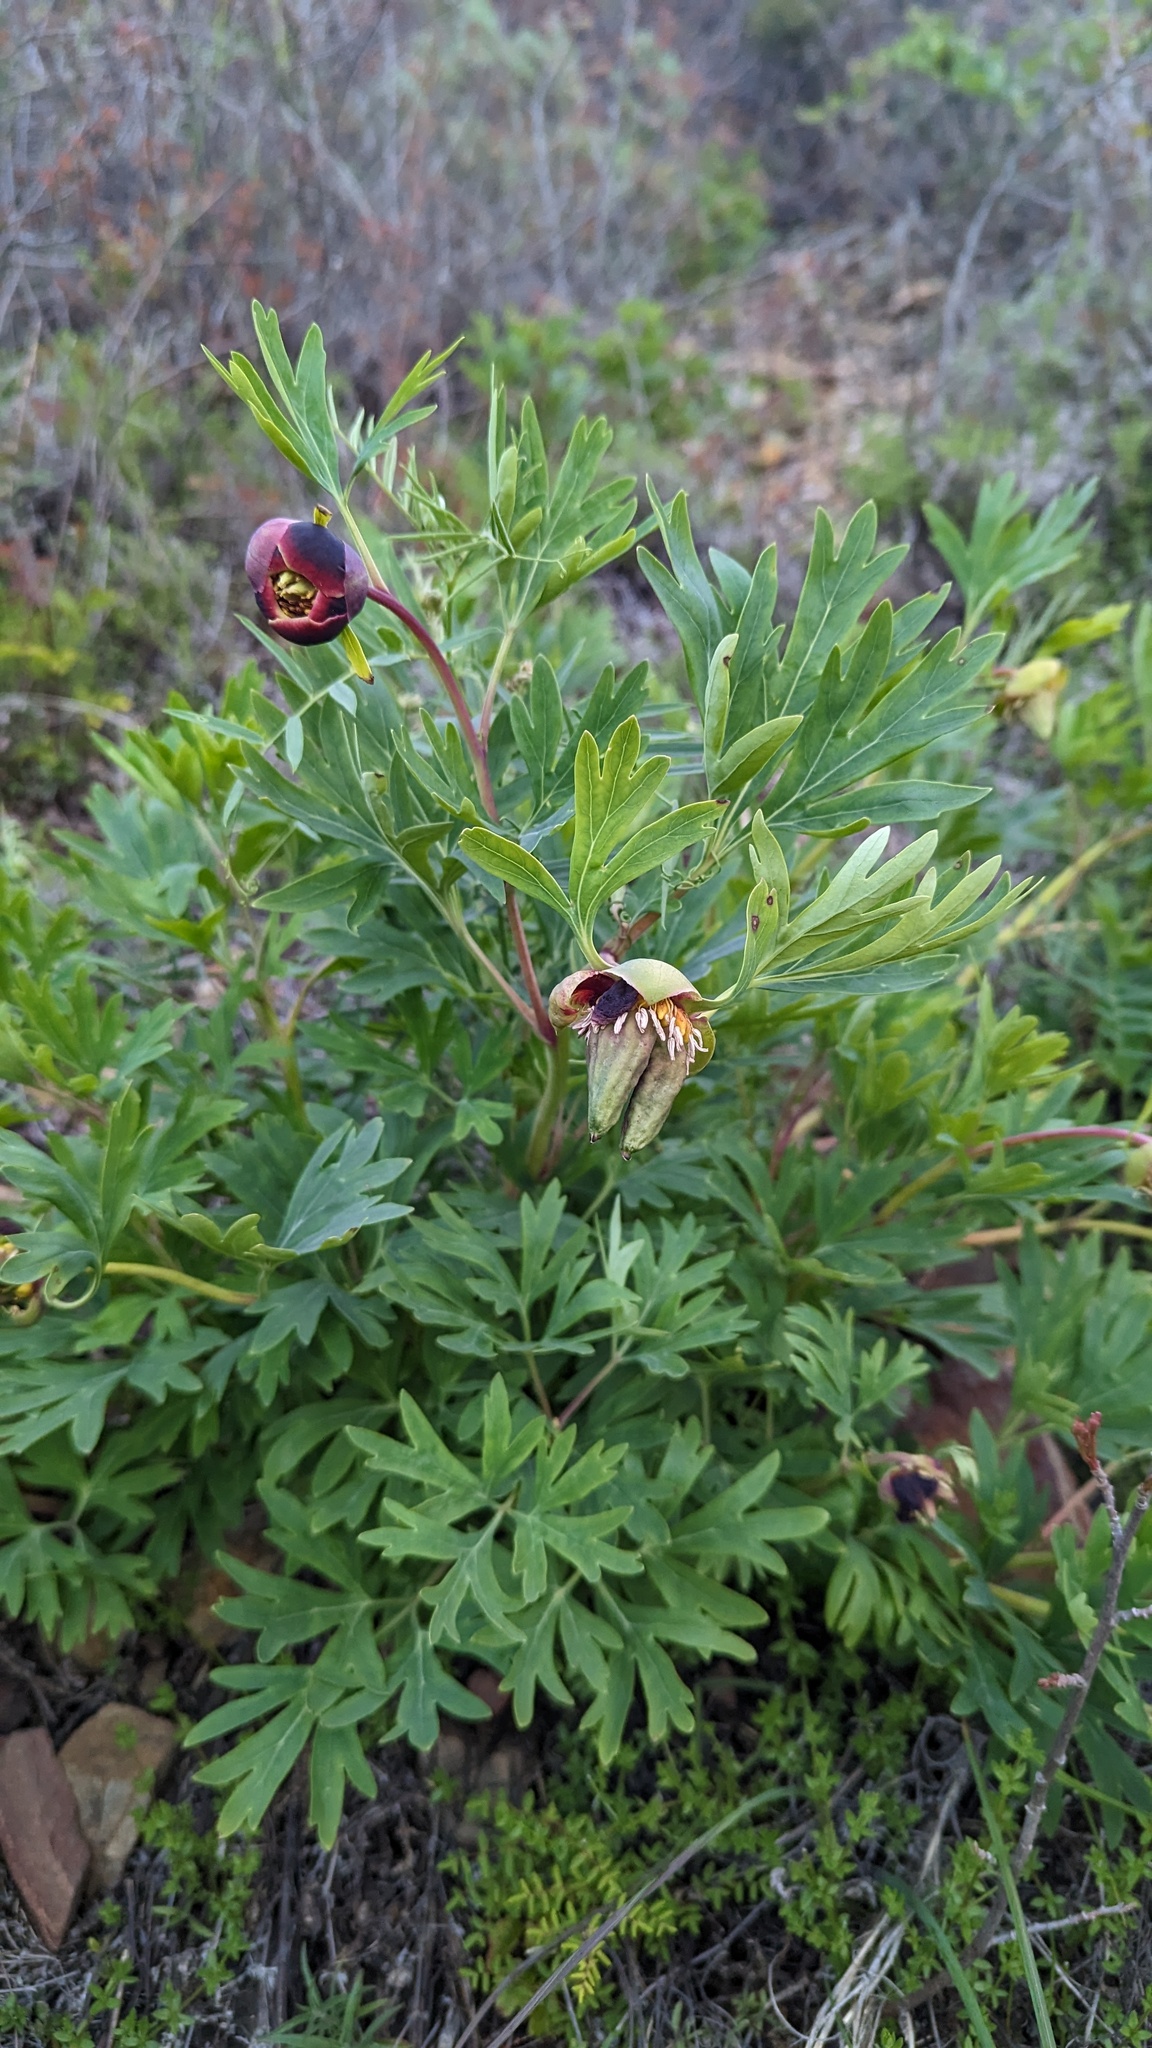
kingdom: Plantae
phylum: Tracheophyta
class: Magnoliopsida
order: Saxifragales
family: Paeoniaceae
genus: Paeonia
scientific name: Paeonia californica
